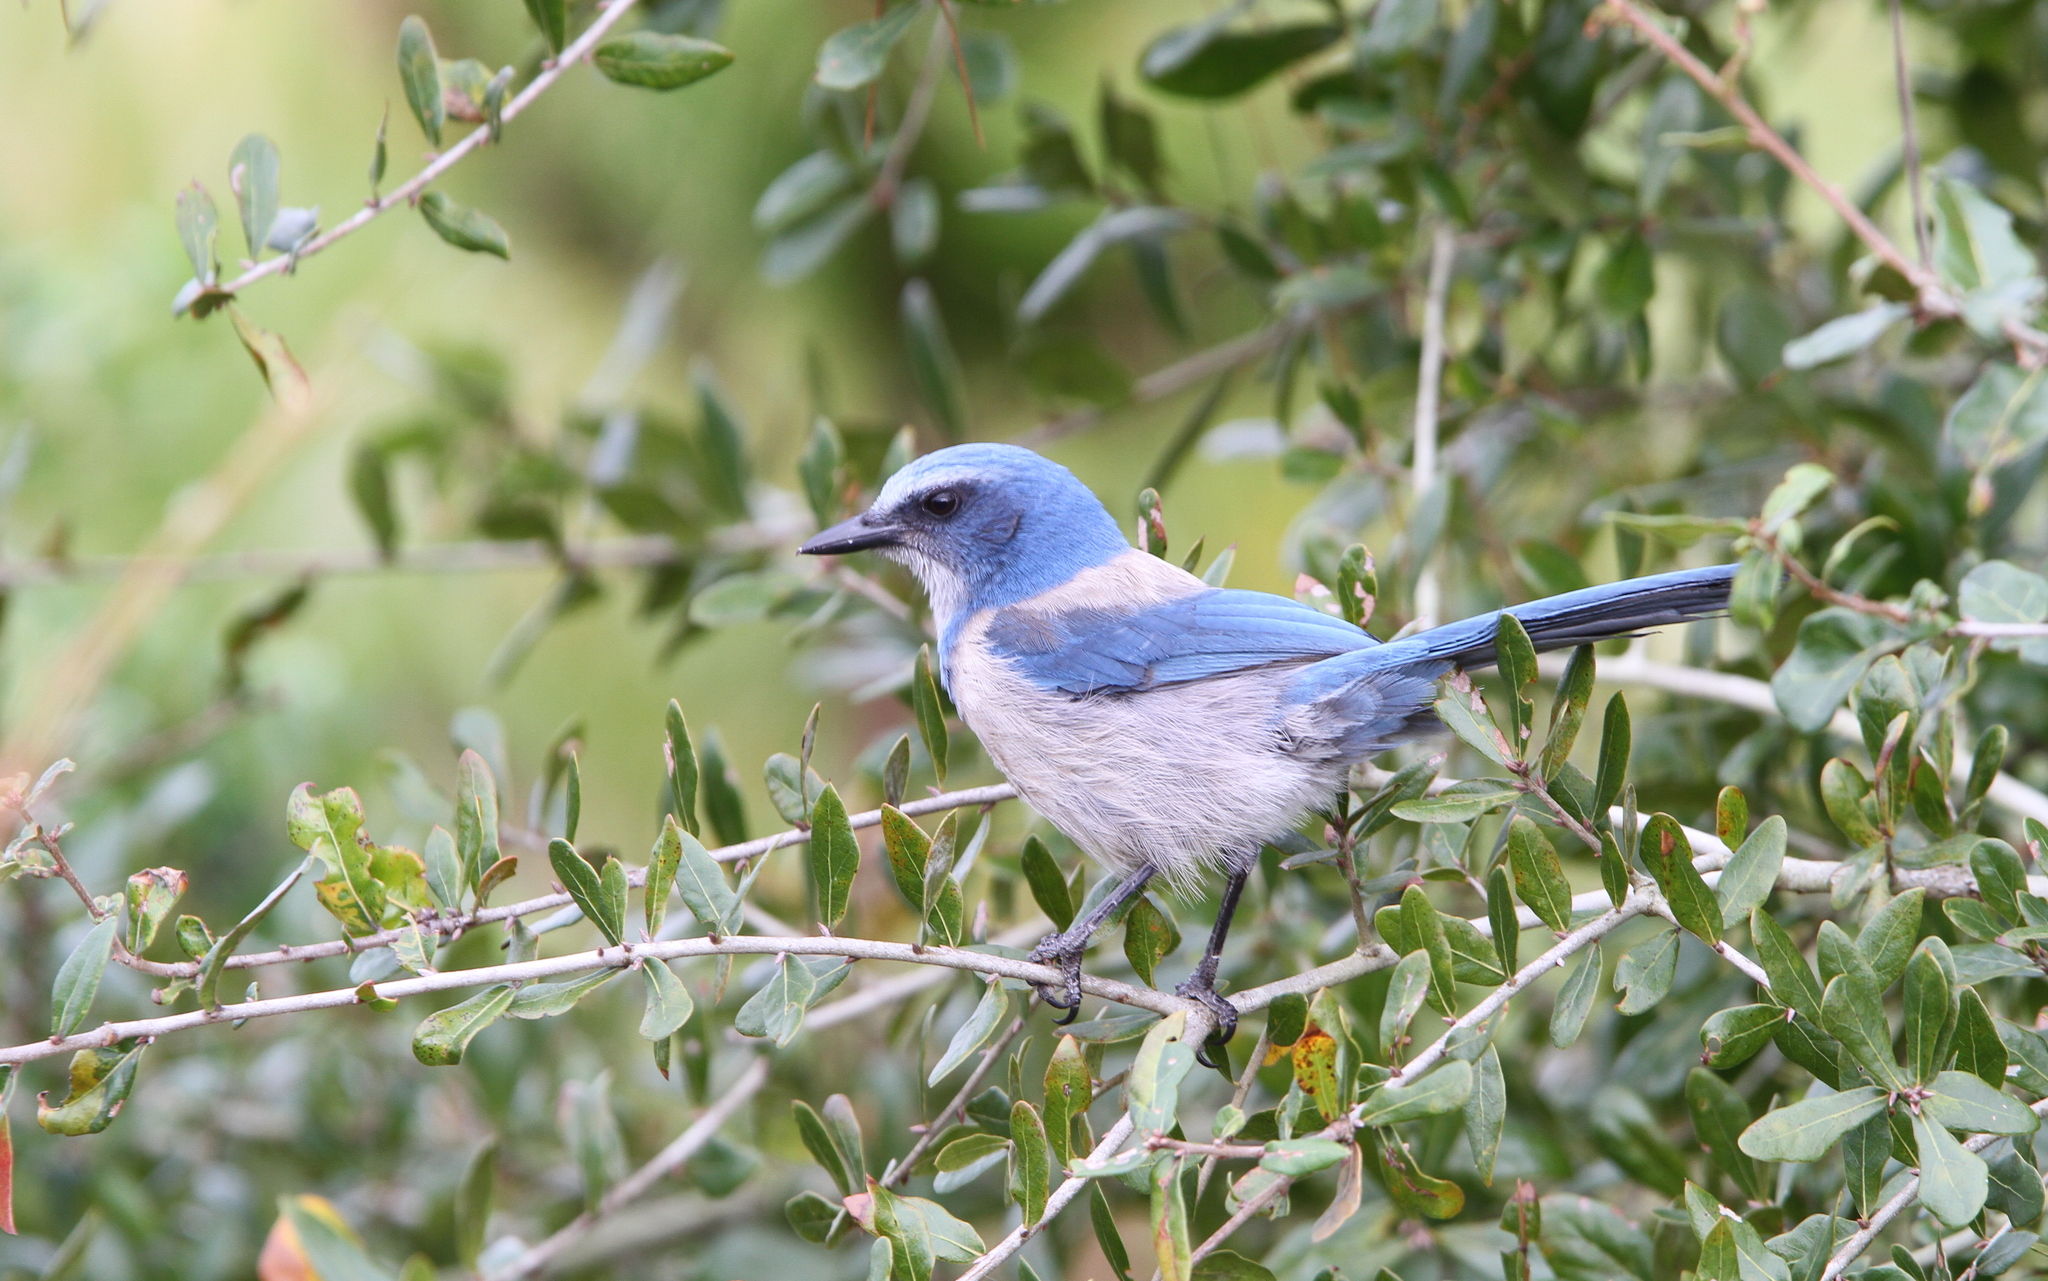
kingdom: Animalia
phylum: Chordata
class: Aves
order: Passeriformes
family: Corvidae
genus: Aphelocoma
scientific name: Aphelocoma coerulescens
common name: Florida scrub jay
